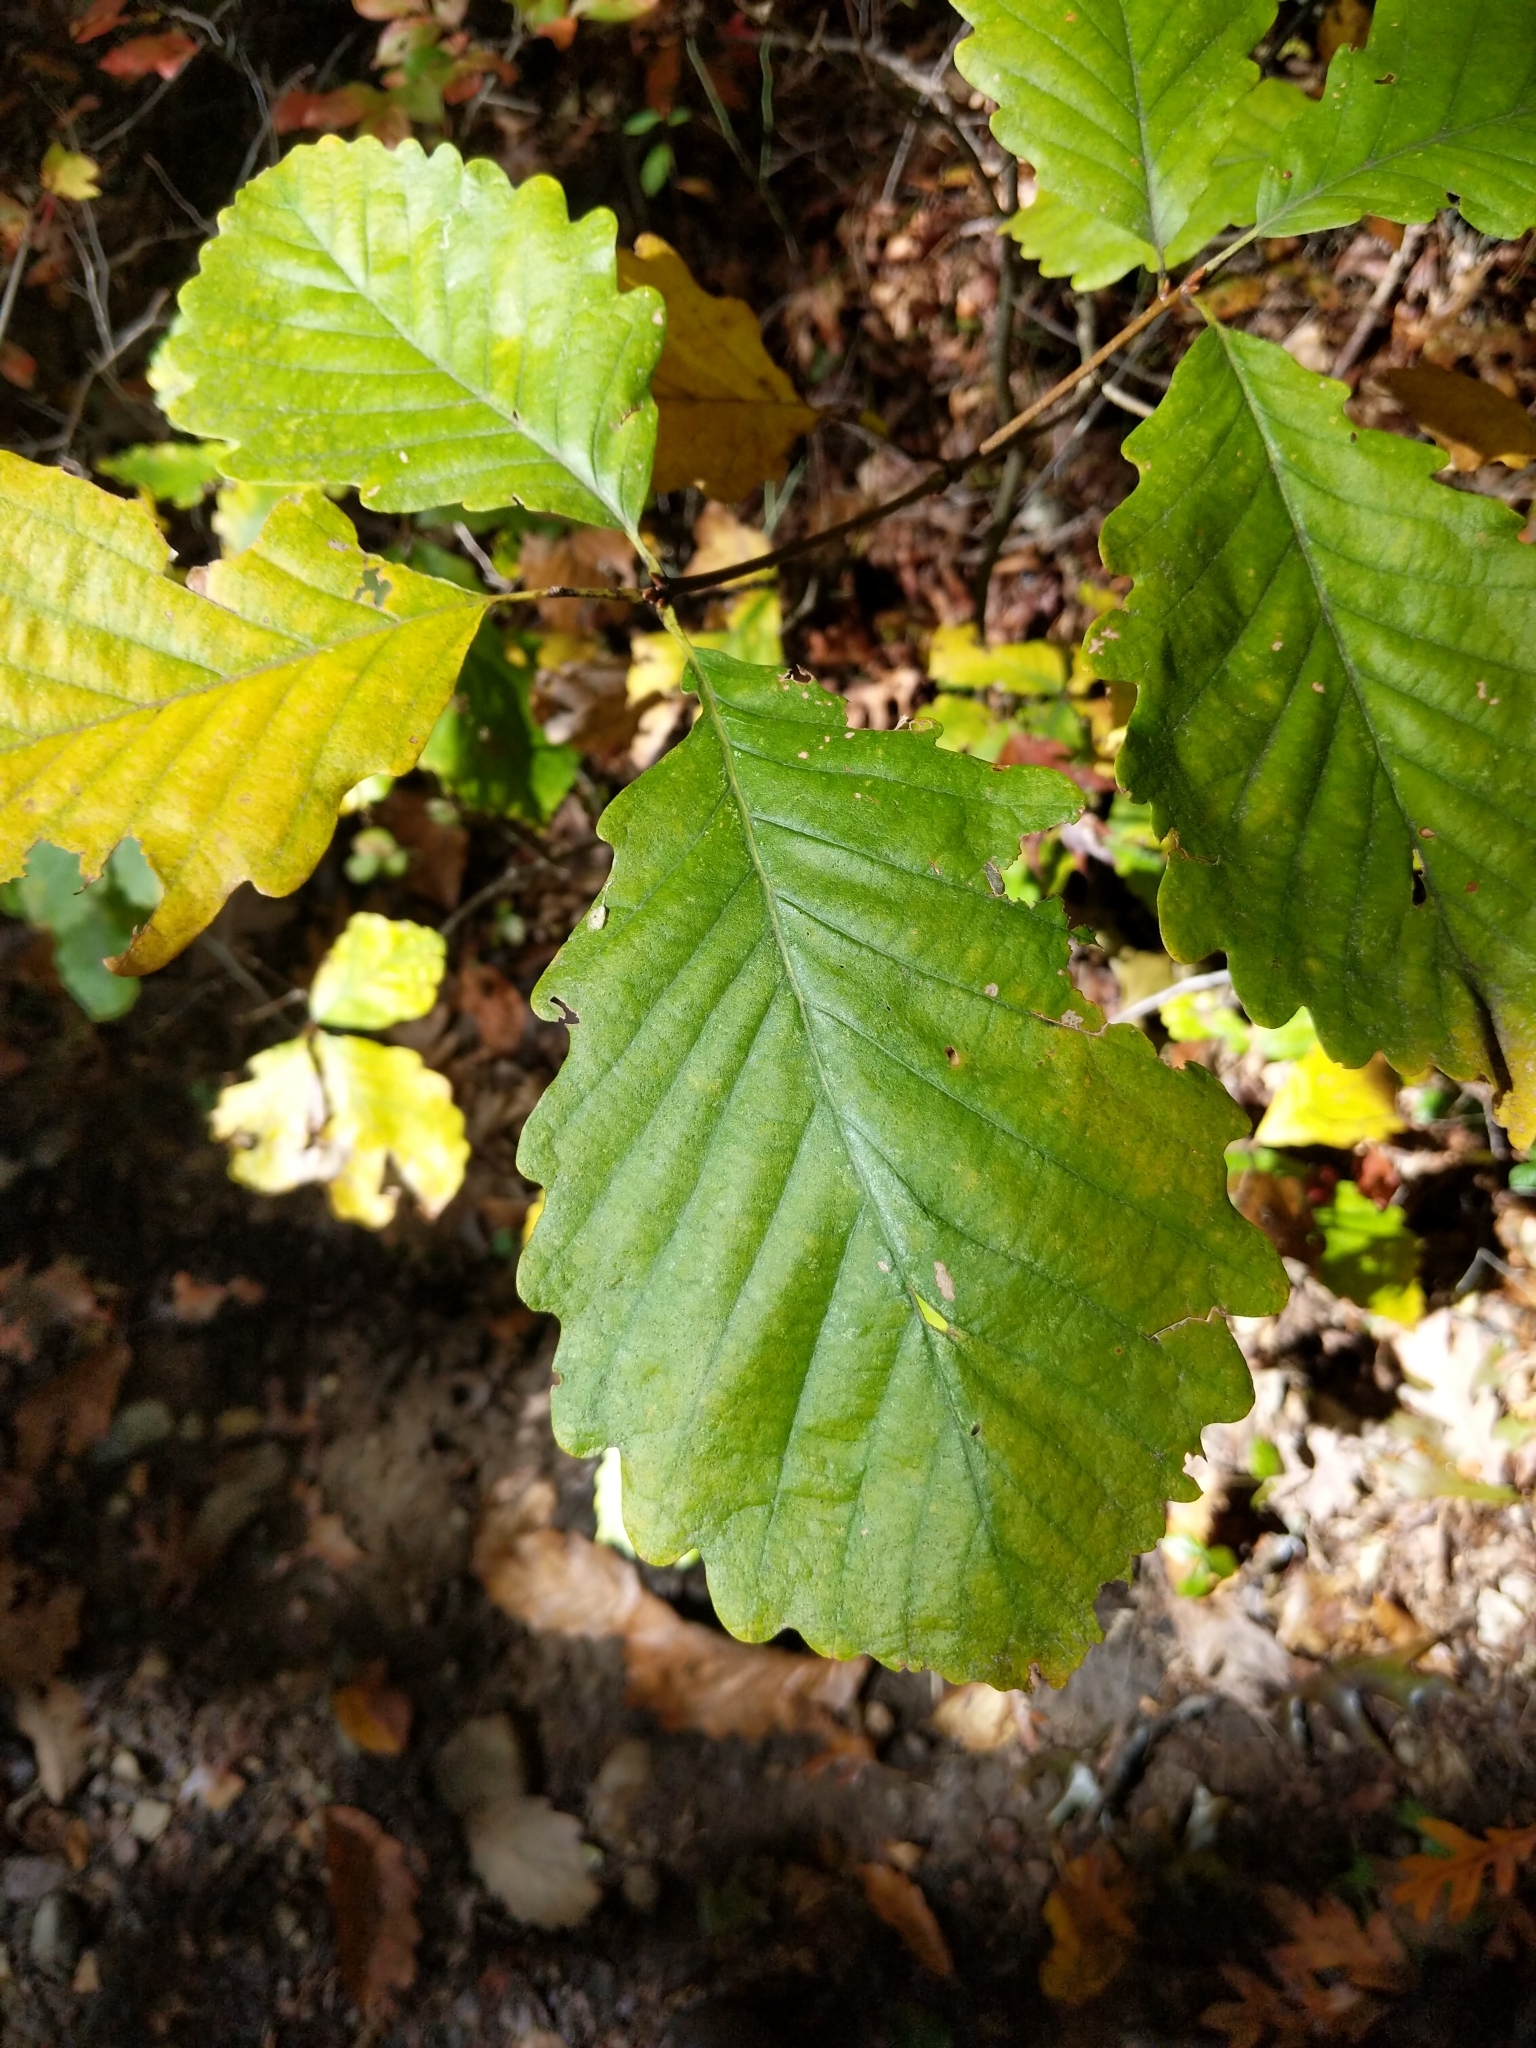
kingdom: Plantae
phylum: Tracheophyta
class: Magnoliopsida
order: Fagales
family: Fagaceae
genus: Quercus
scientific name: Quercus montana
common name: Chestnut oak
